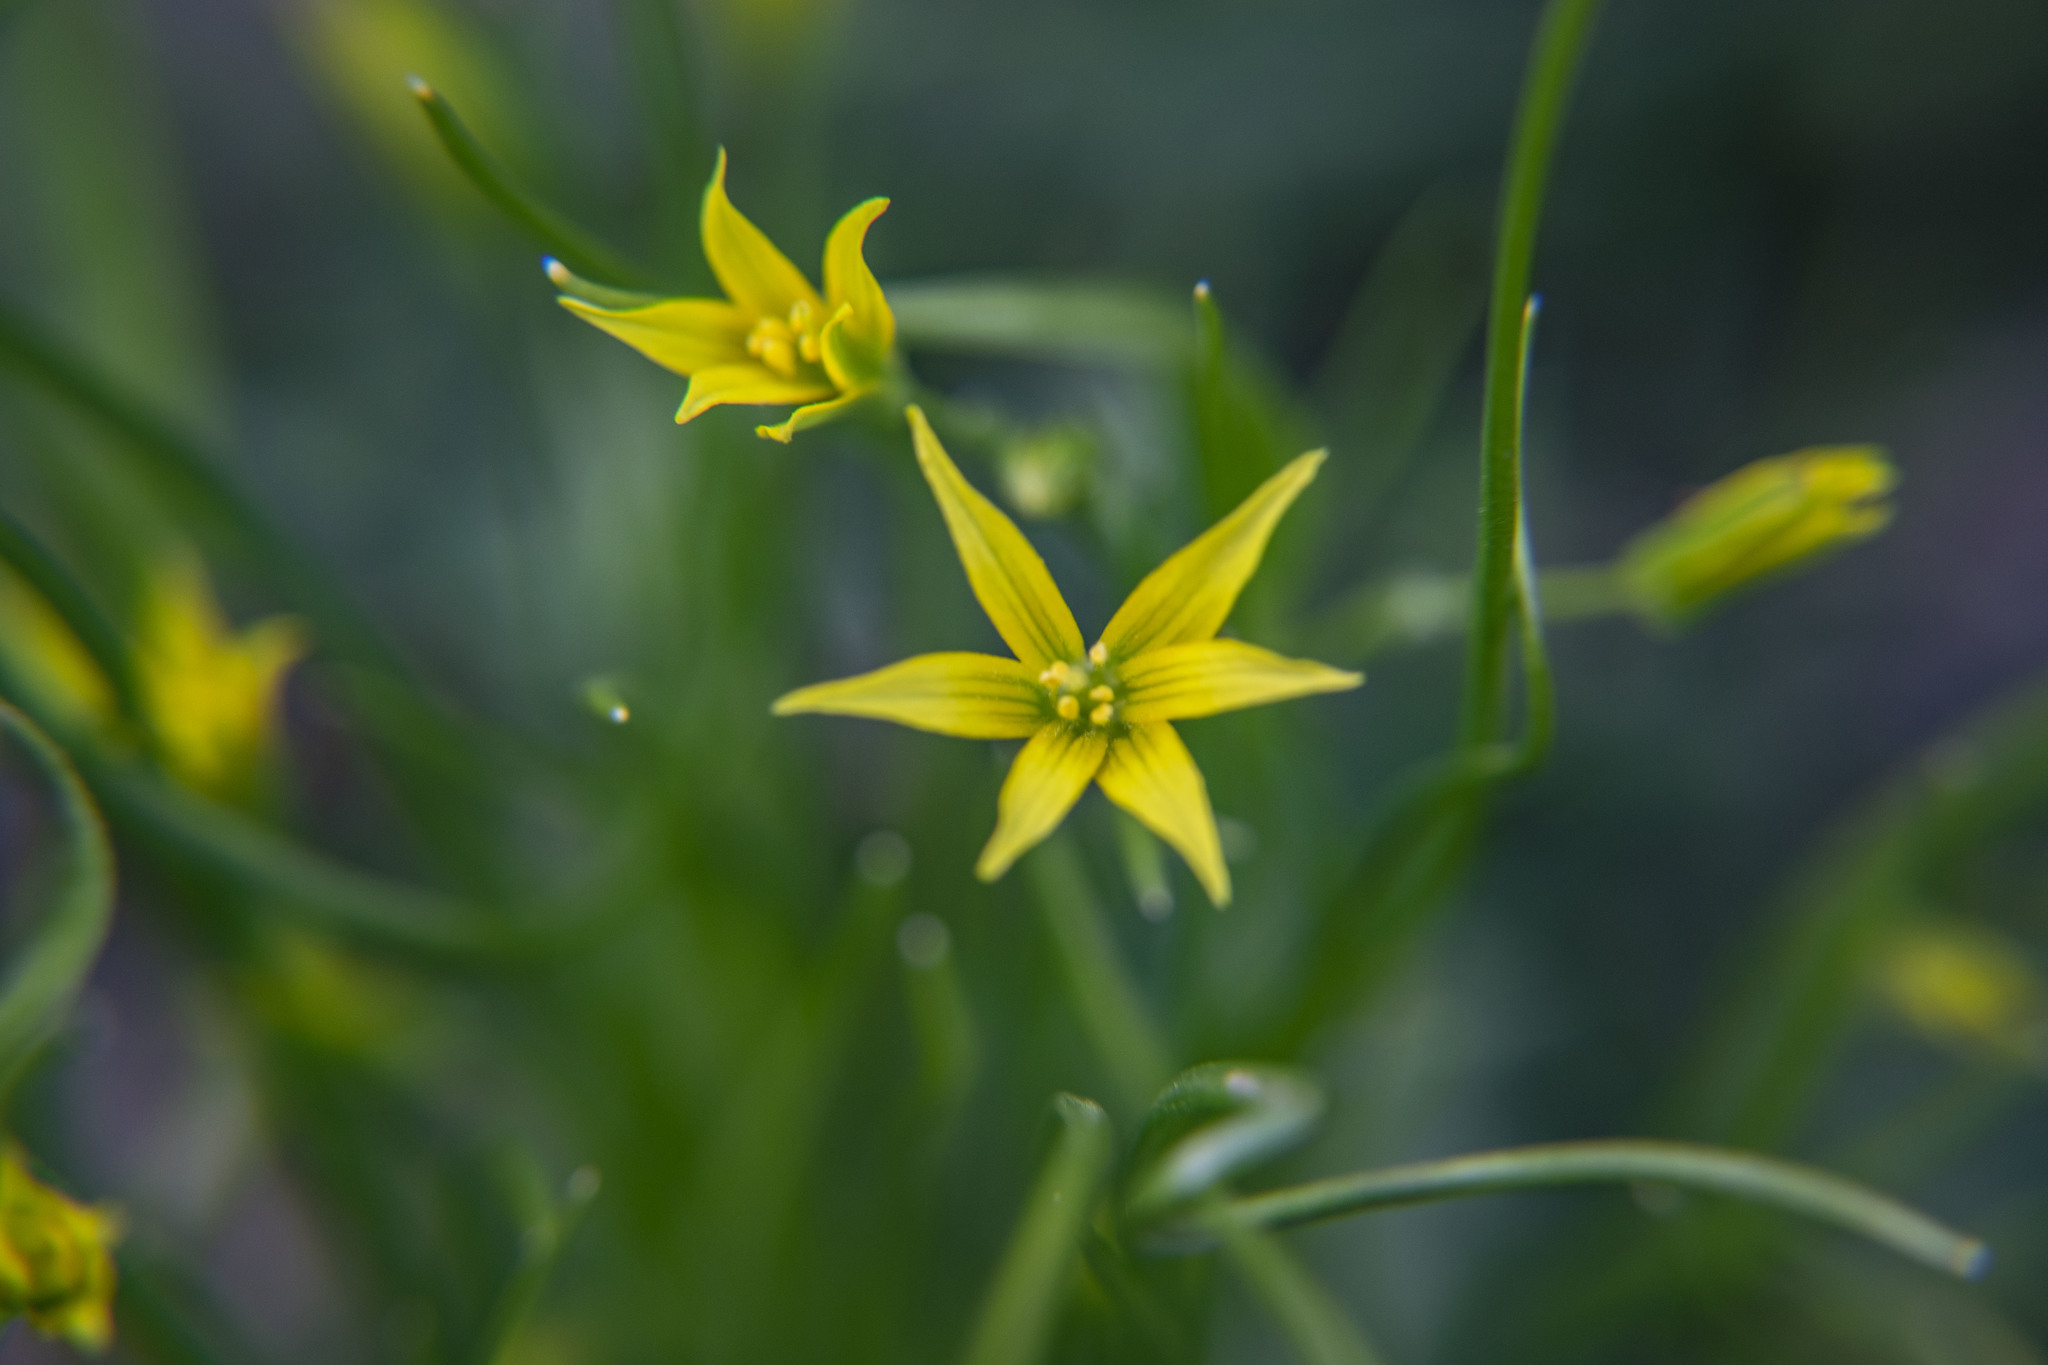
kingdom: Plantae
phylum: Tracheophyta
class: Liliopsida
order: Liliales
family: Liliaceae
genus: Gagea
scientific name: Gagea minima
